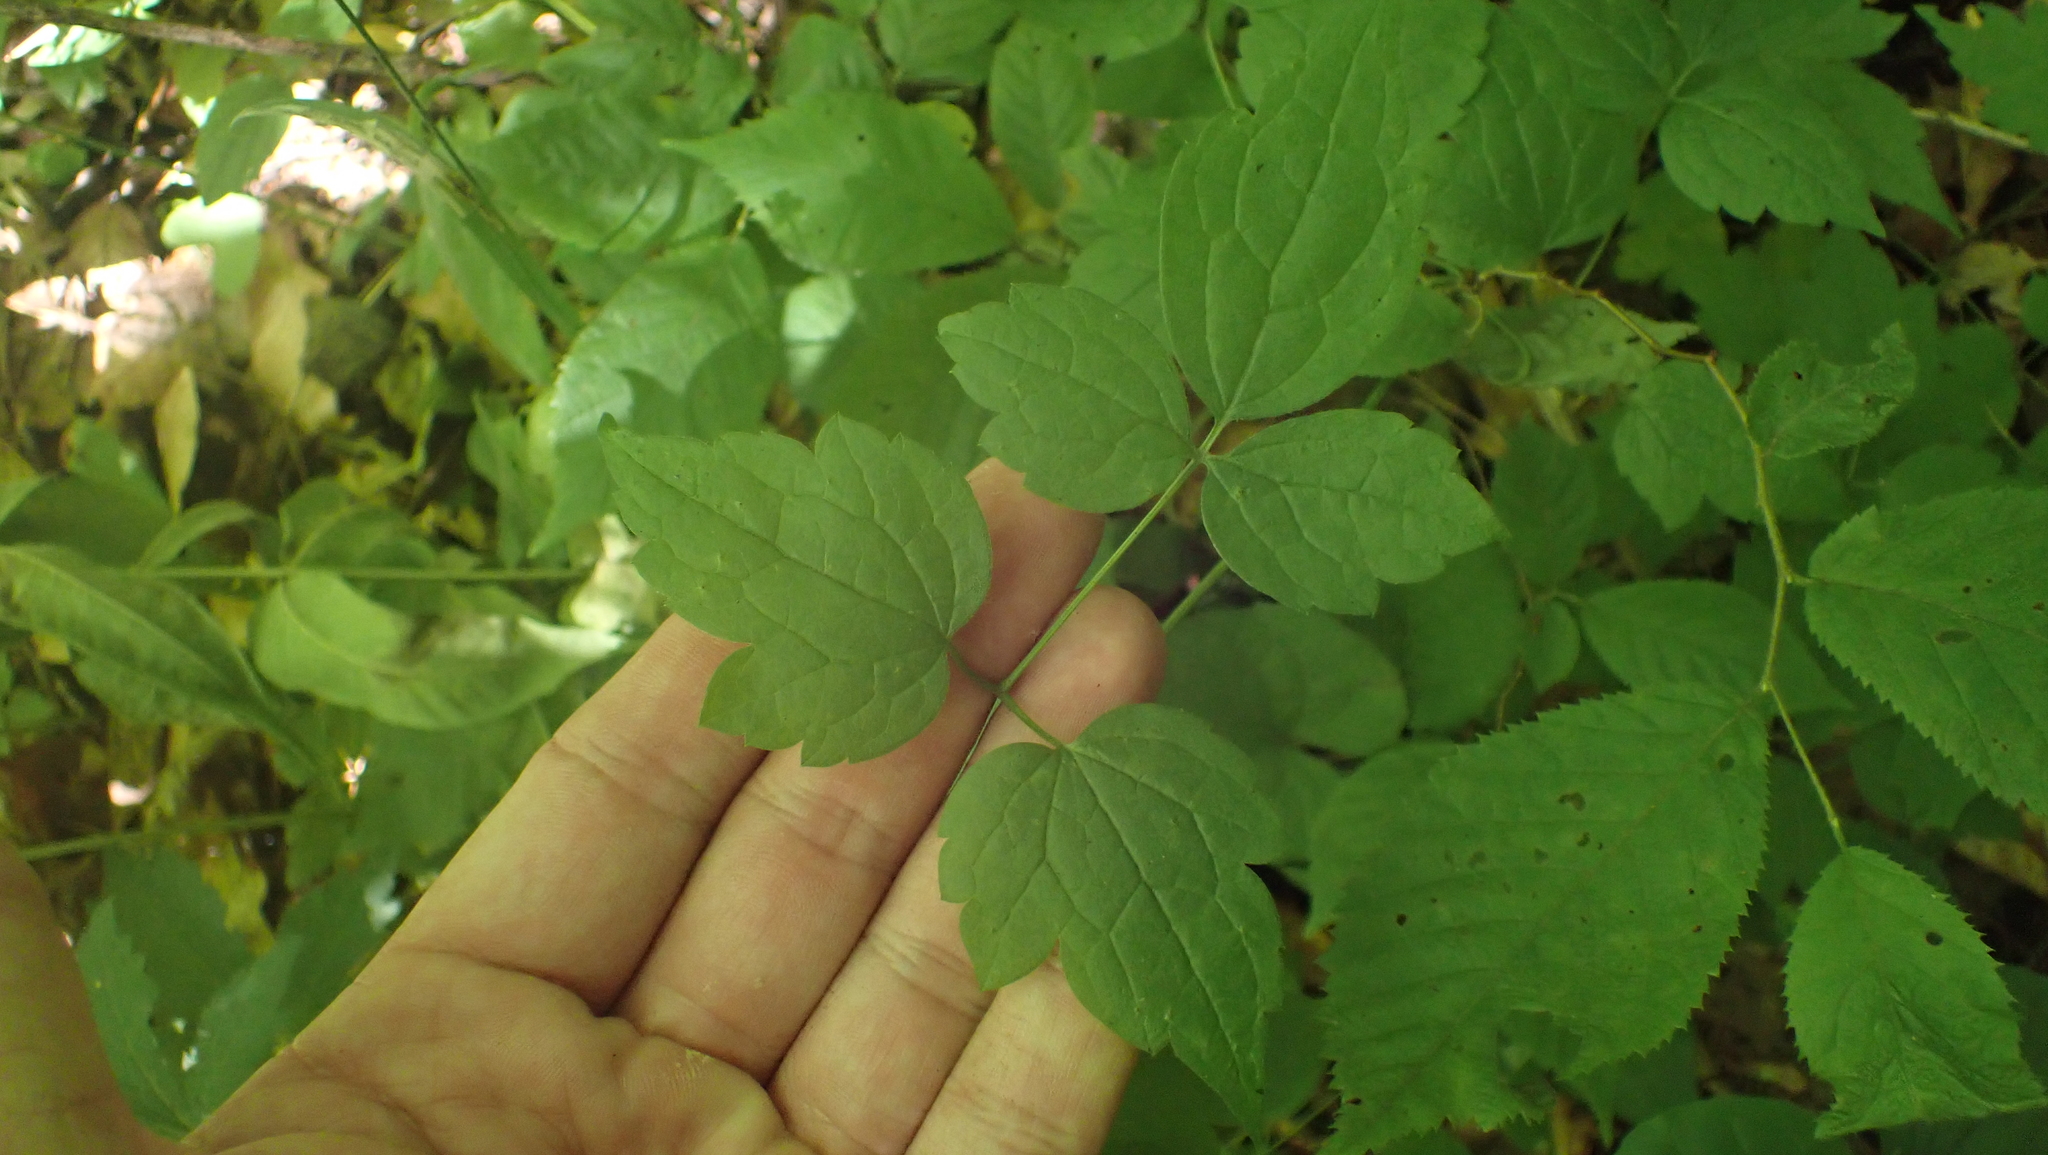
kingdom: Plantae
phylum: Tracheophyta
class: Magnoliopsida
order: Ranunculales
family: Ranunculaceae
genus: Clematis
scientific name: Clematis catesbyana
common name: Virgin's bower
